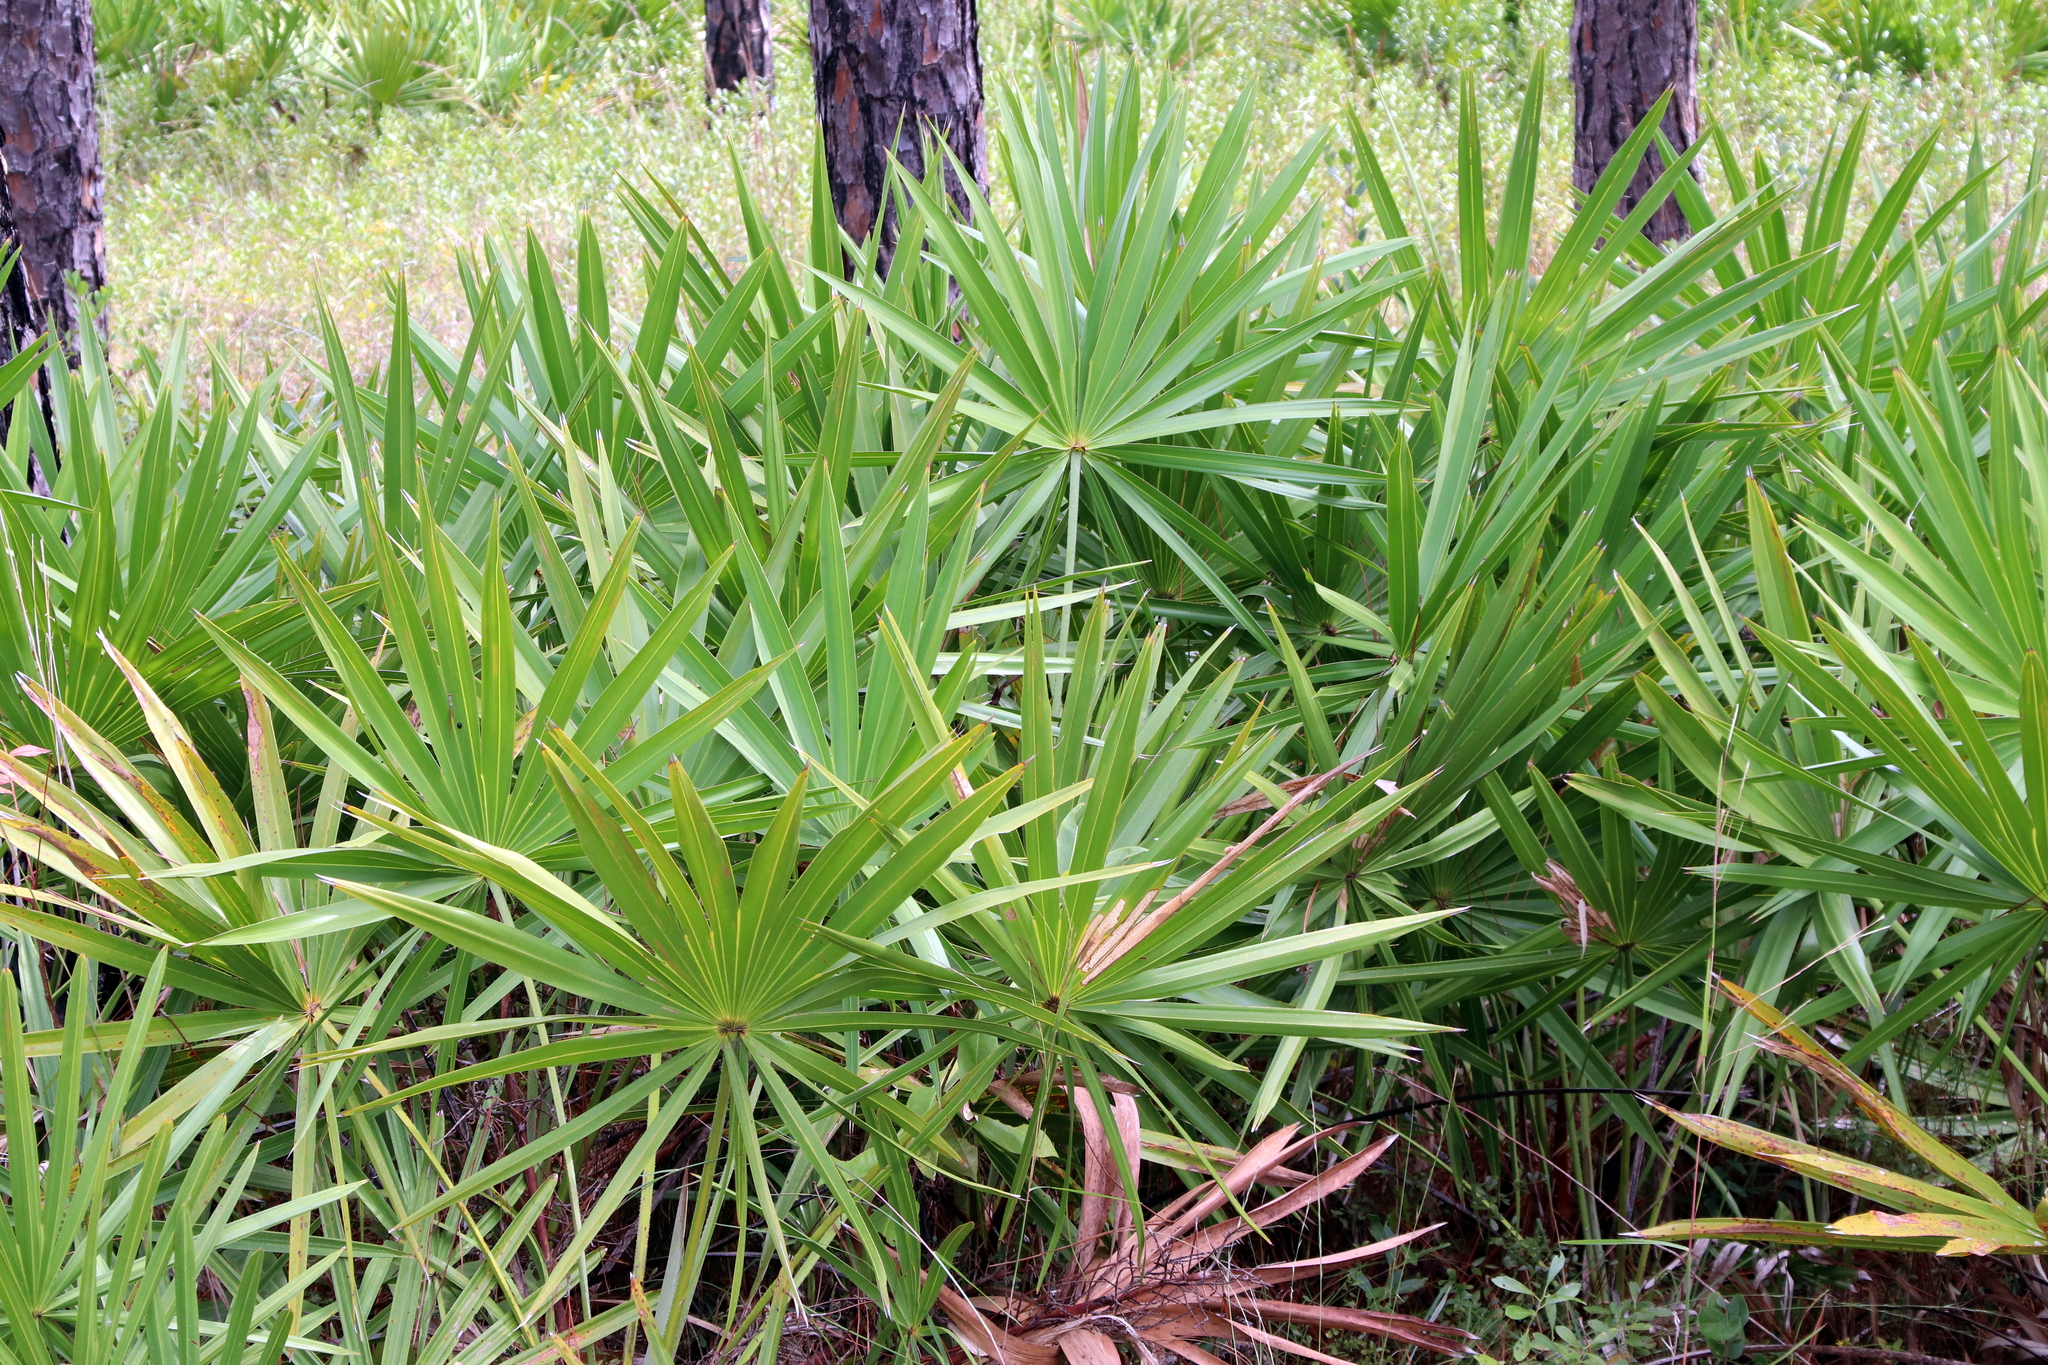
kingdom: Plantae
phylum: Tracheophyta
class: Liliopsida
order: Arecales
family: Arecaceae
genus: Serenoa
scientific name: Serenoa repens
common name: Saw-palmetto
